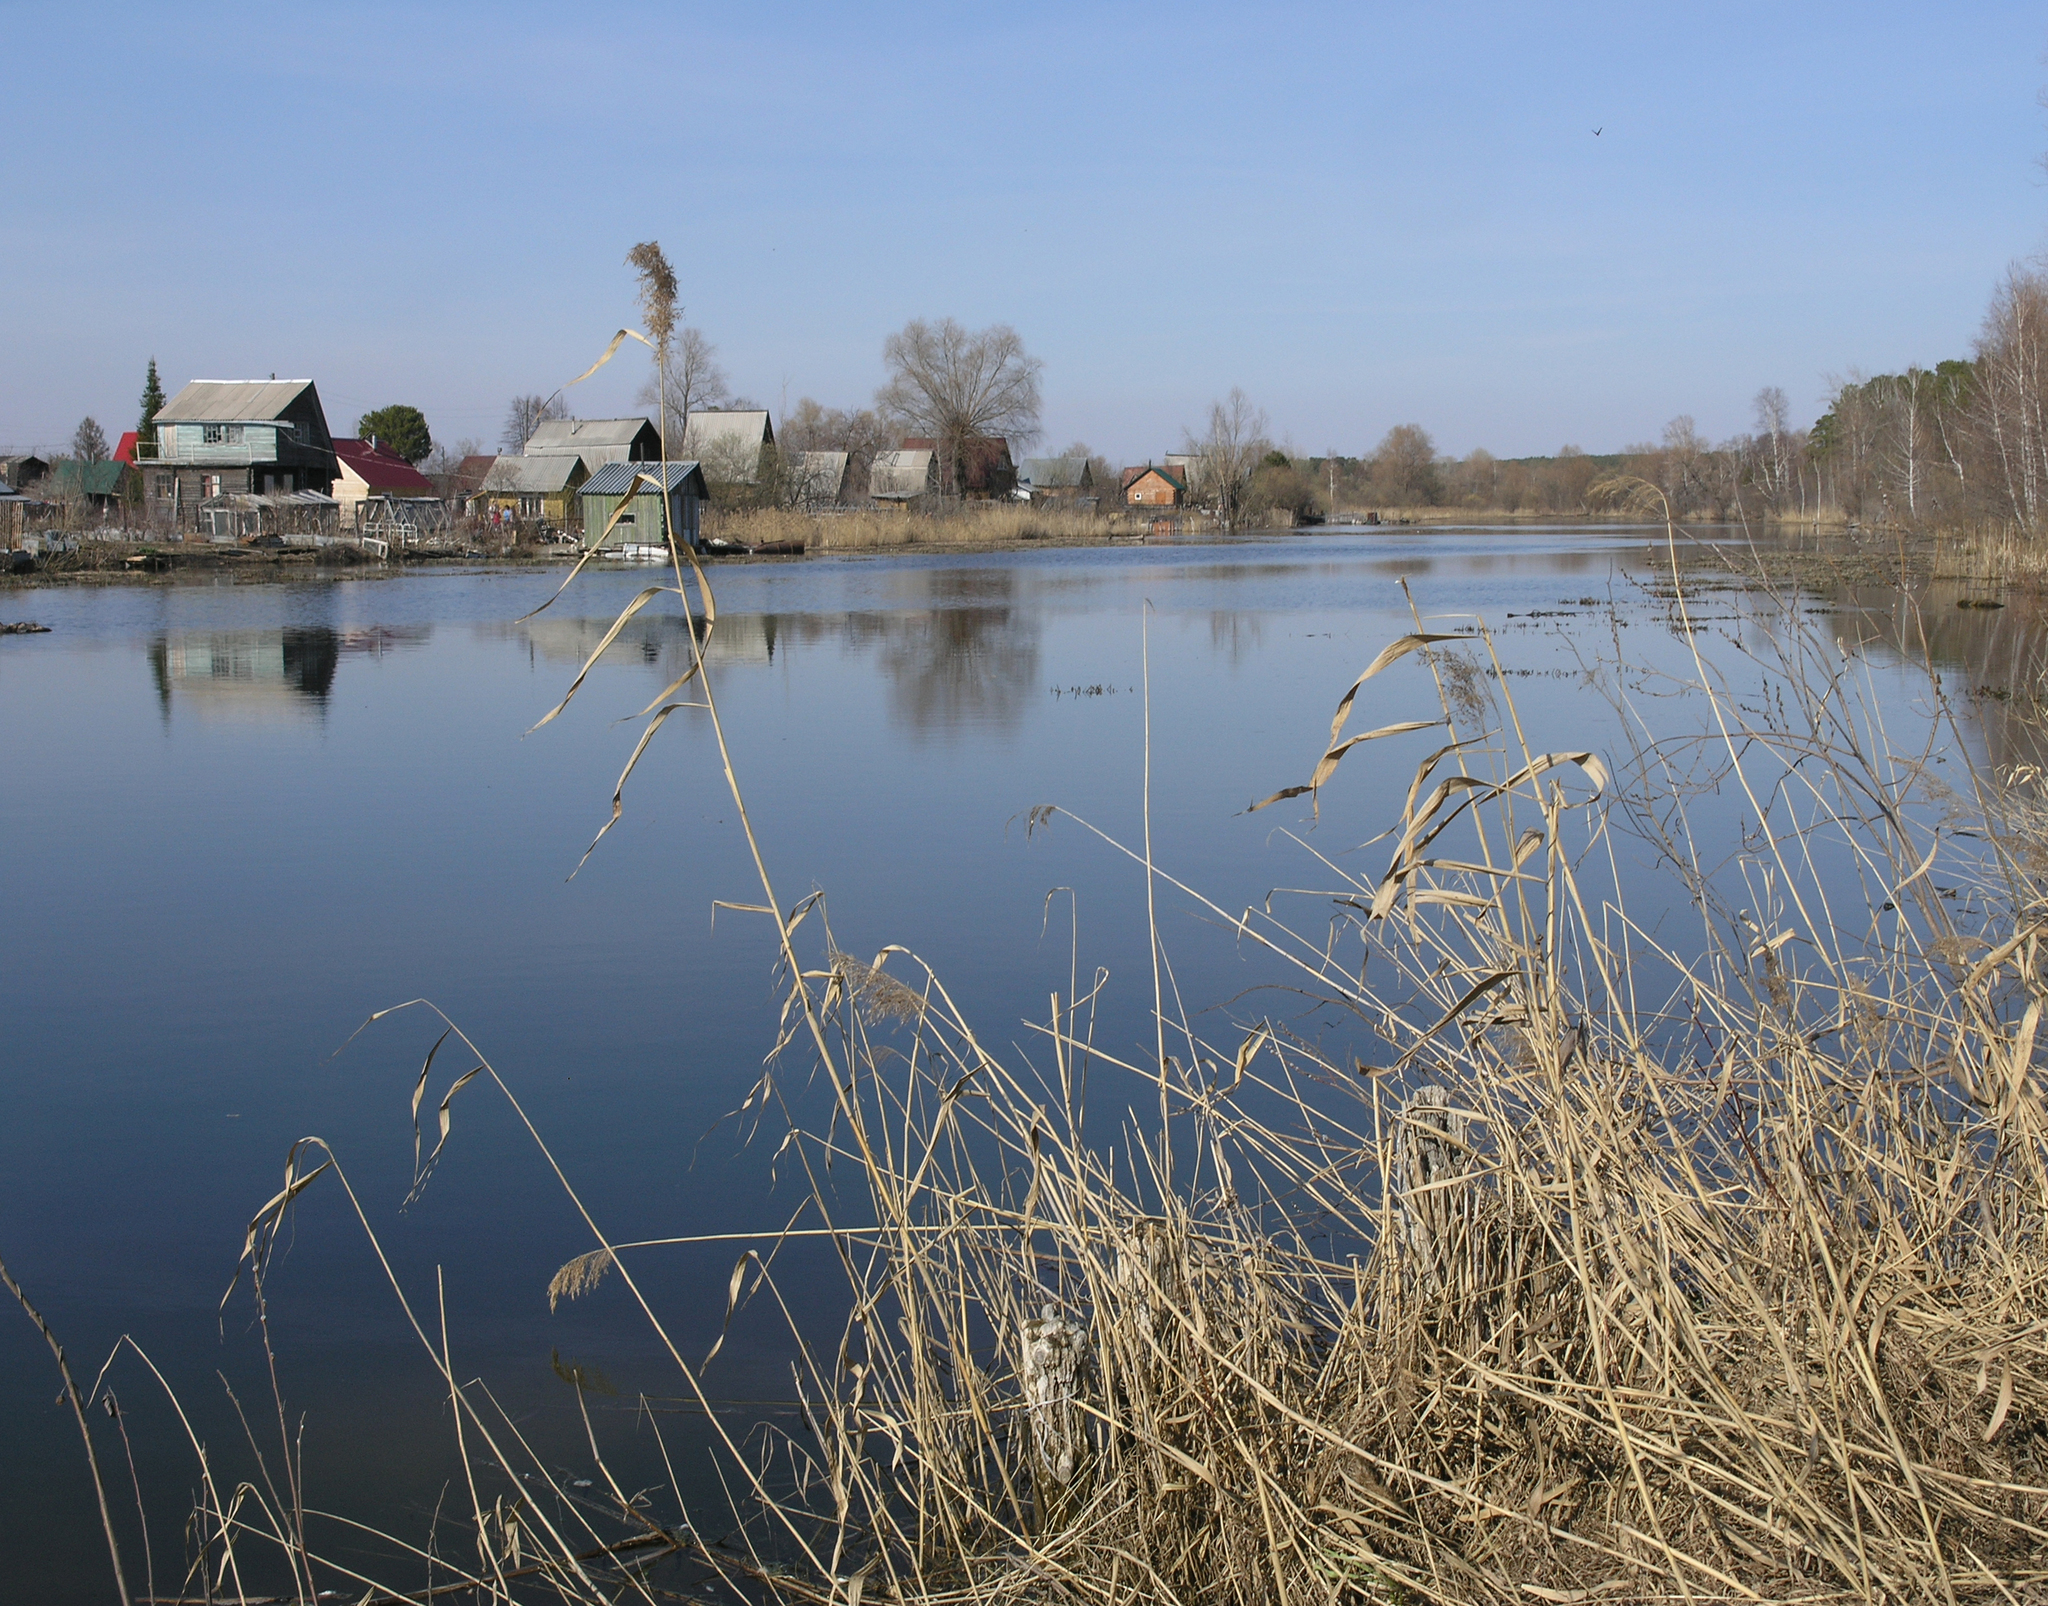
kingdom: Plantae
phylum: Tracheophyta
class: Liliopsida
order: Poales
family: Poaceae
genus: Phragmites
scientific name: Phragmites australis
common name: Common reed
